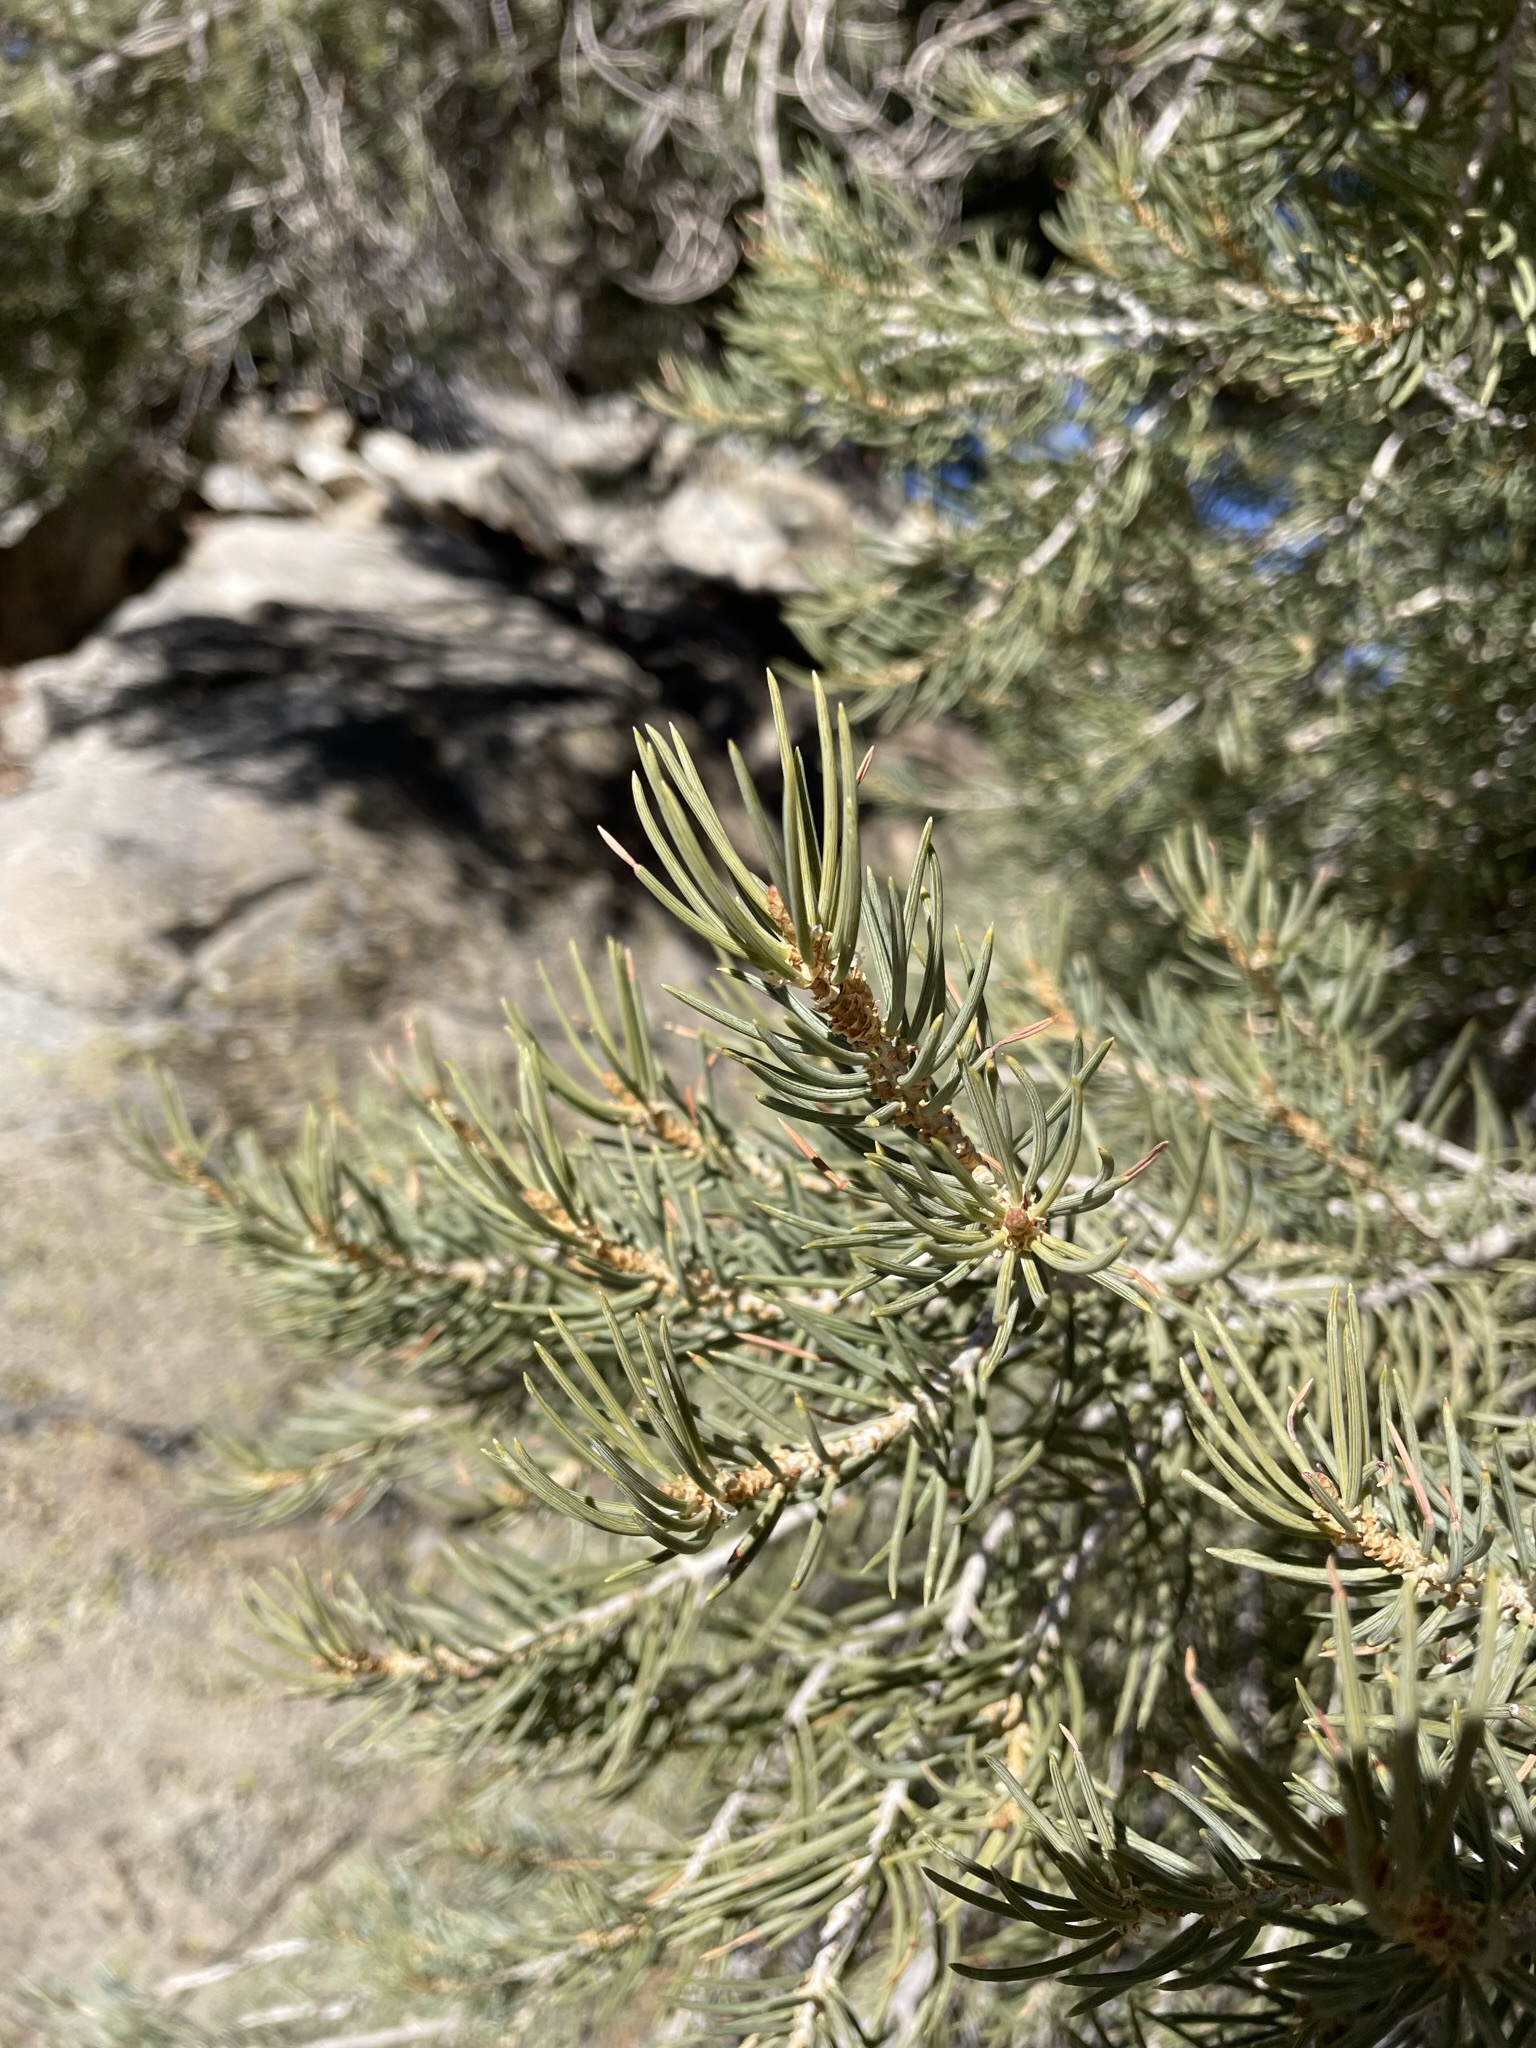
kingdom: Plantae
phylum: Tracheophyta
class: Pinopsida
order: Pinales
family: Pinaceae
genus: Pinus
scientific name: Pinus monophylla
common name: One-leaved nut pine
